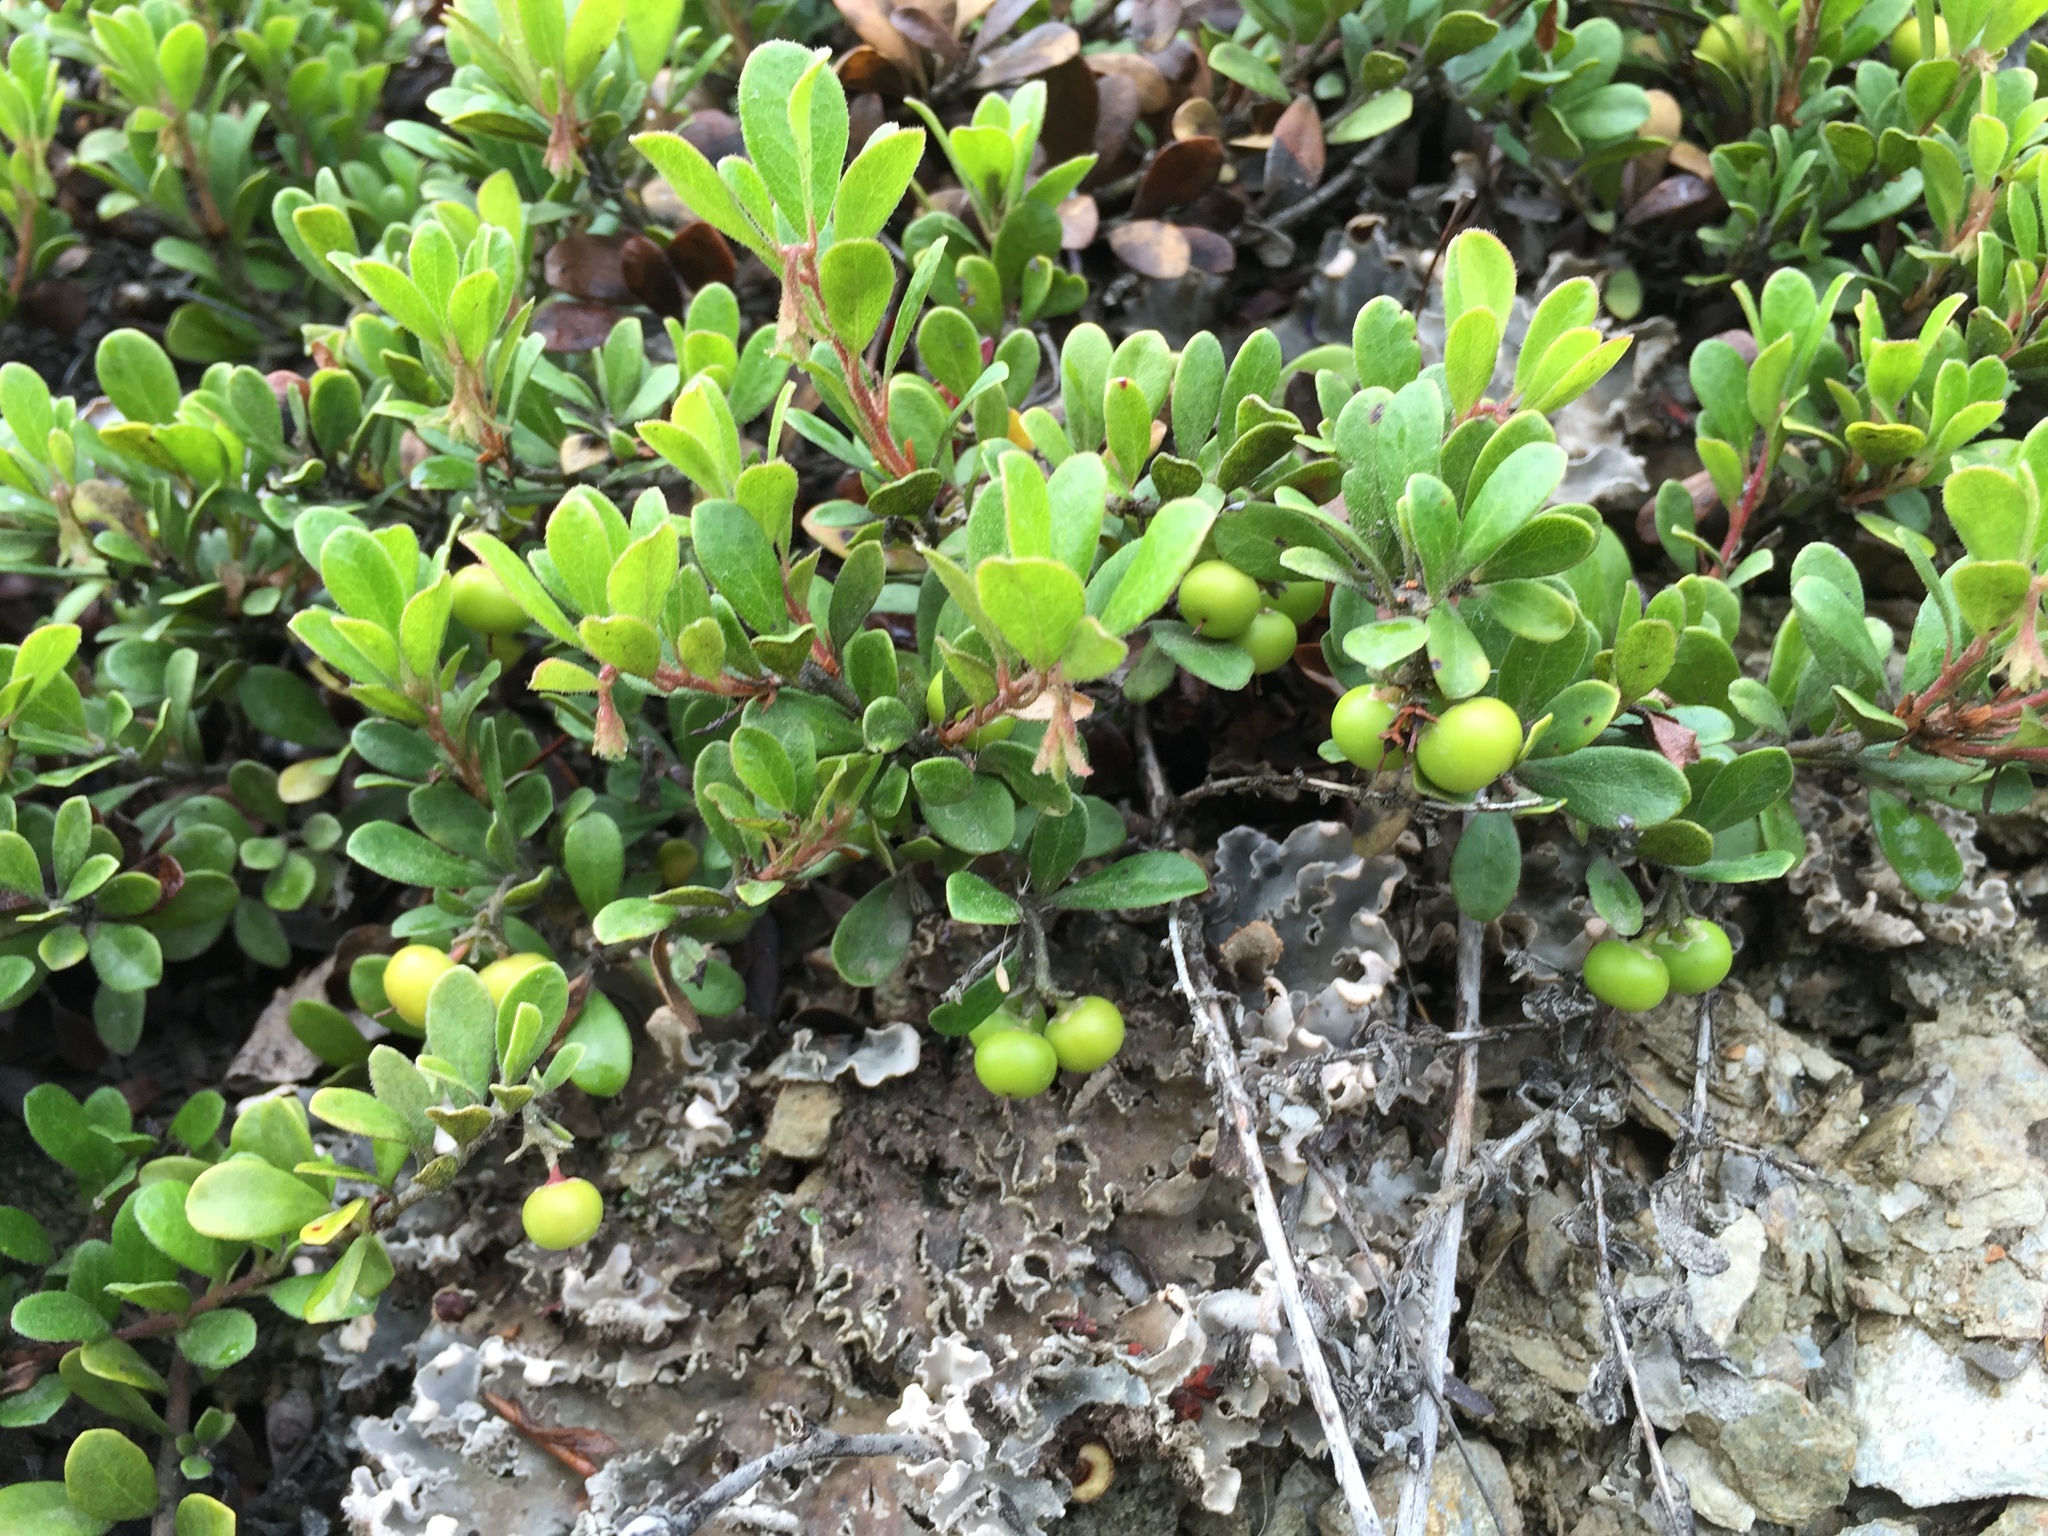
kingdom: Plantae
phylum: Tracheophyta
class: Magnoliopsida
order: Ericales
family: Ericaceae
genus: Arctostaphylos
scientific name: Arctostaphylos uva-ursi
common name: Bearberry
